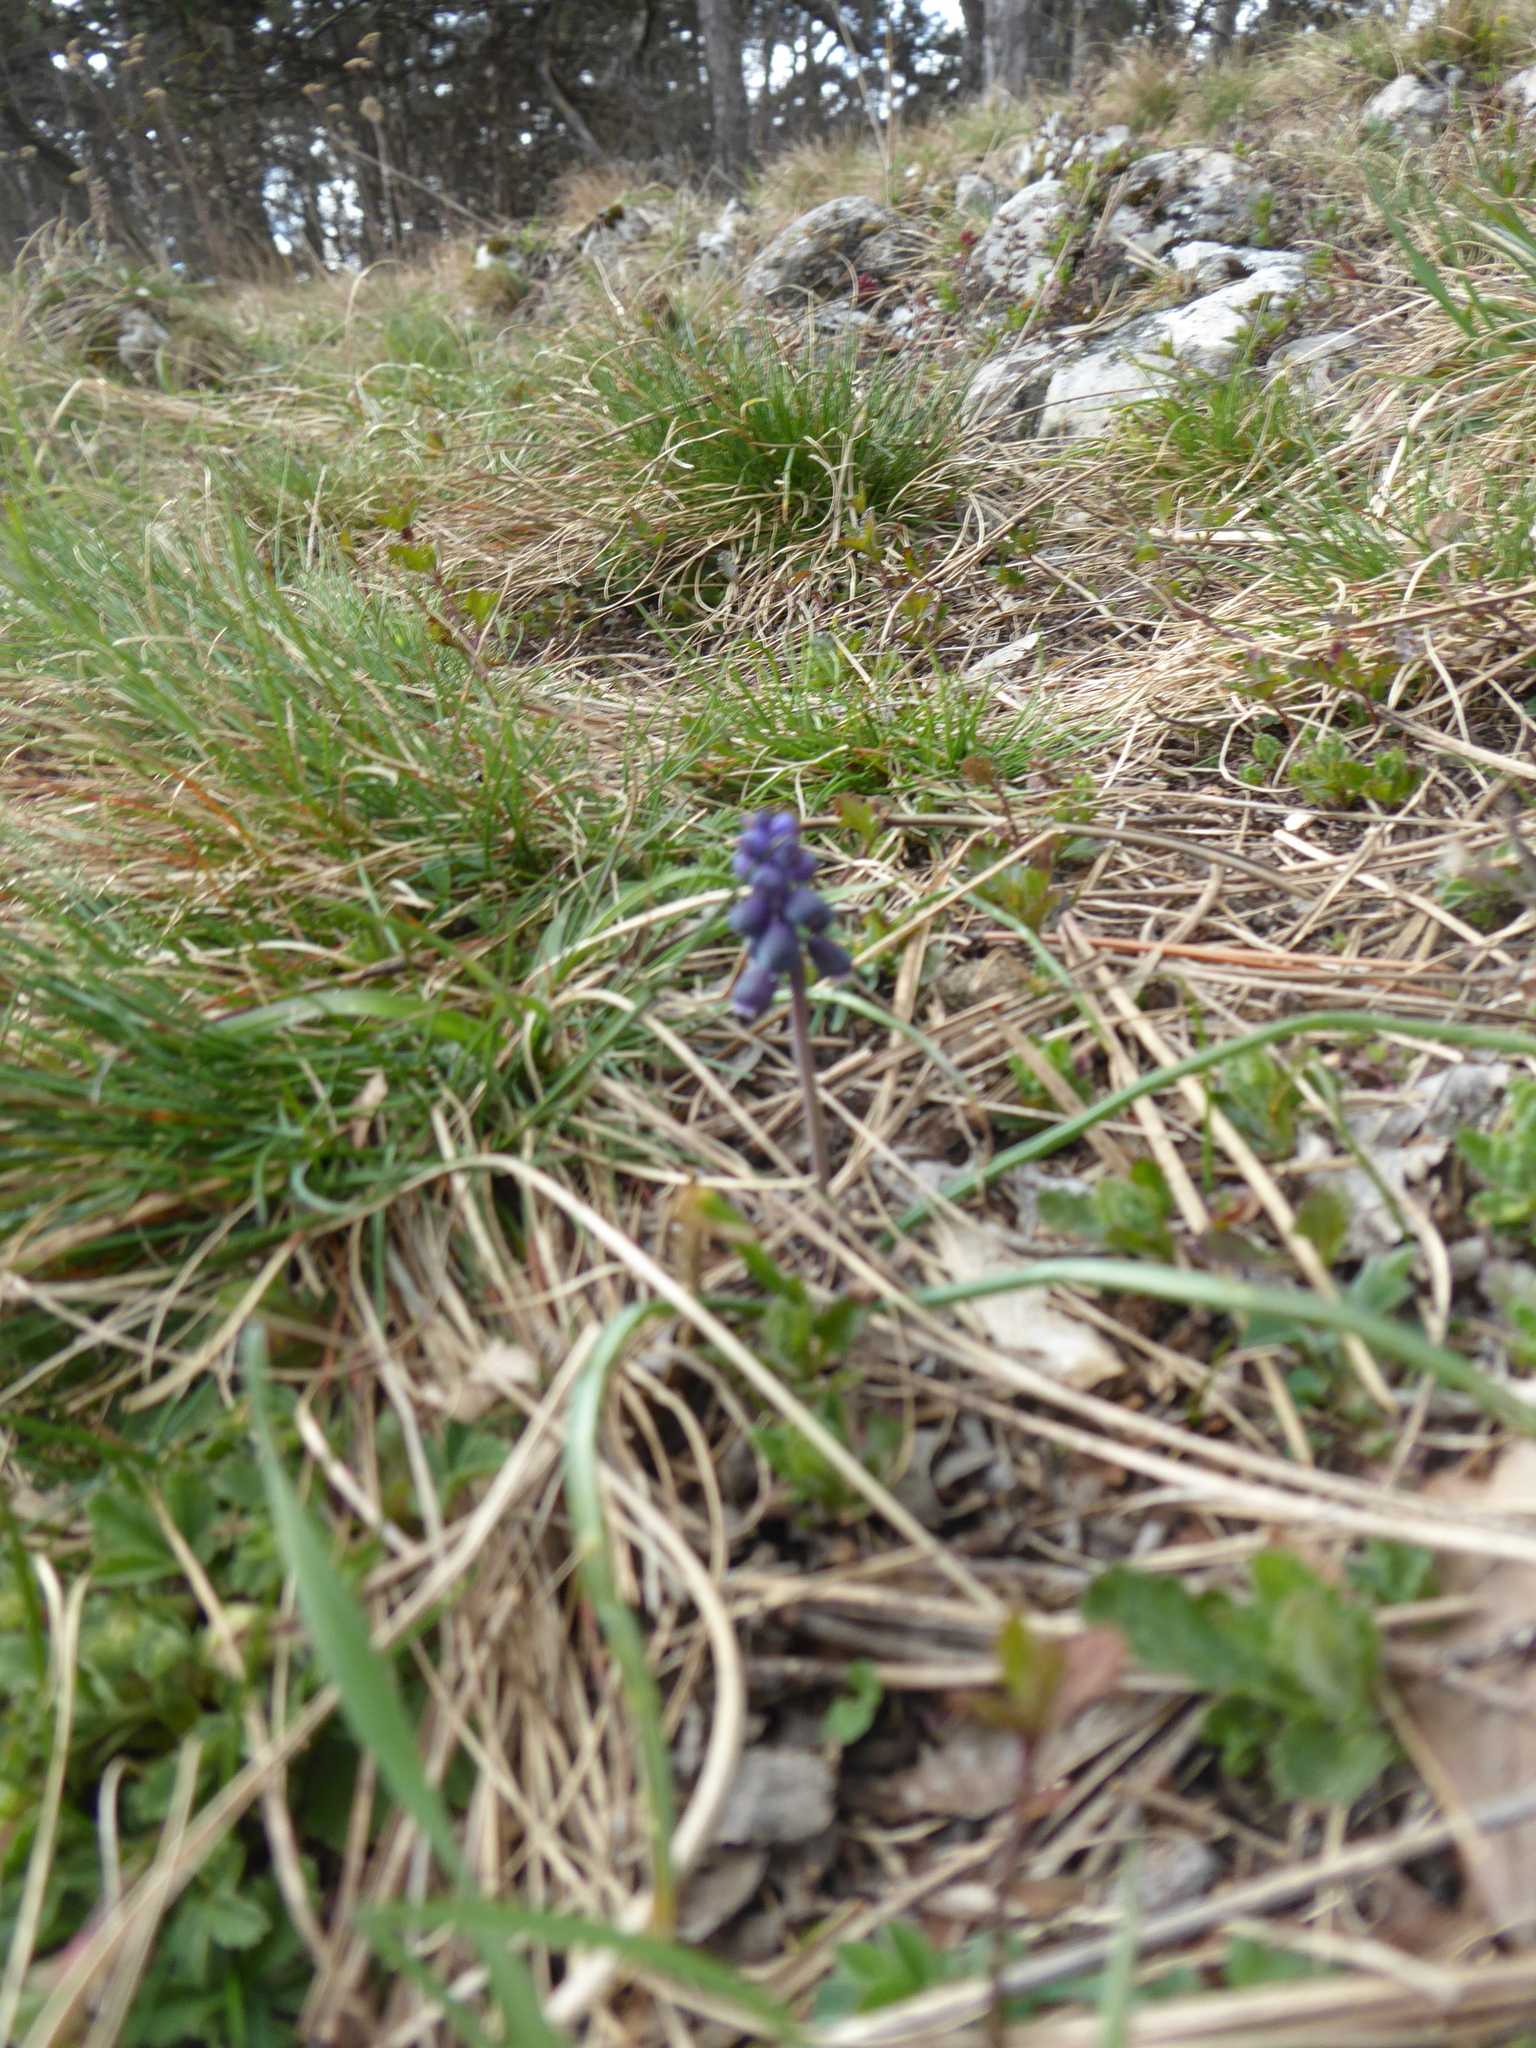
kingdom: Plantae
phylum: Tracheophyta
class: Liliopsida
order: Asparagales
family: Asparagaceae
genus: Muscari
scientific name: Muscari neglectum
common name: Grape-hyacinth
